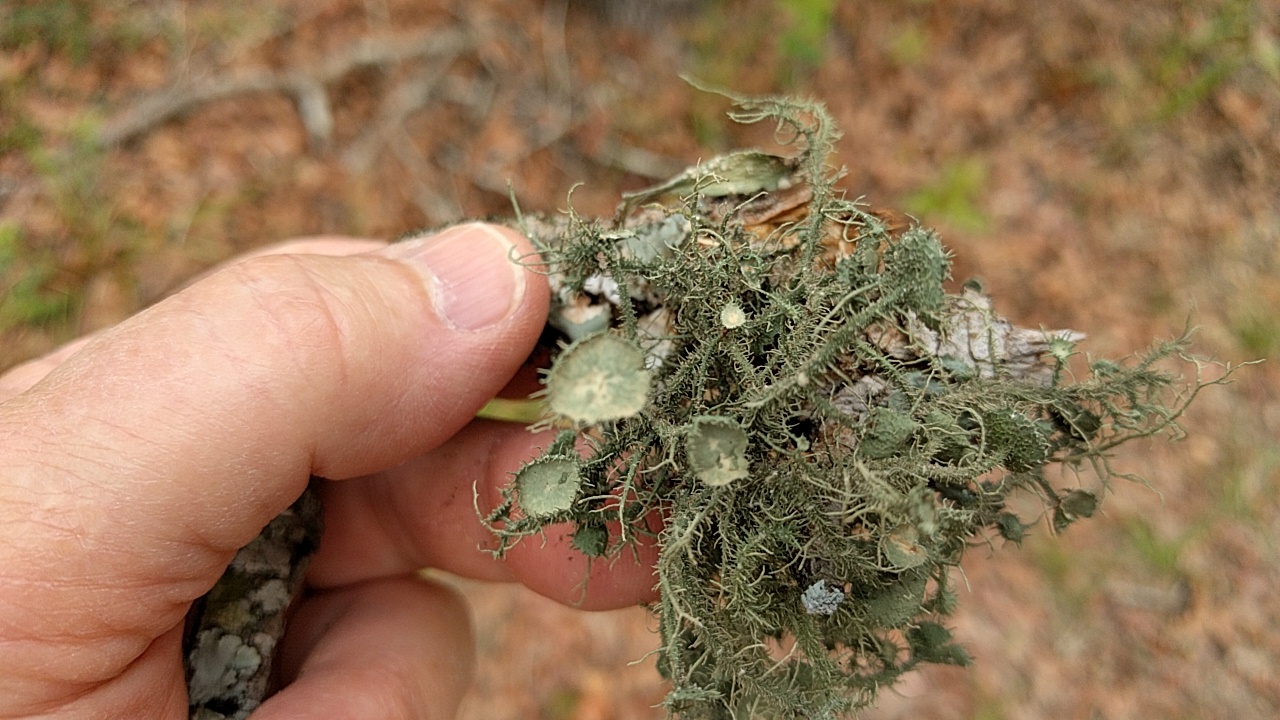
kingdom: Fungi
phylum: Ascomycota
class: Lecanoromycetes
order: Lecanorales
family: Parmeliaceae
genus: Usnea
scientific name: Usnea strigosa
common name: Bushy beard lichen
